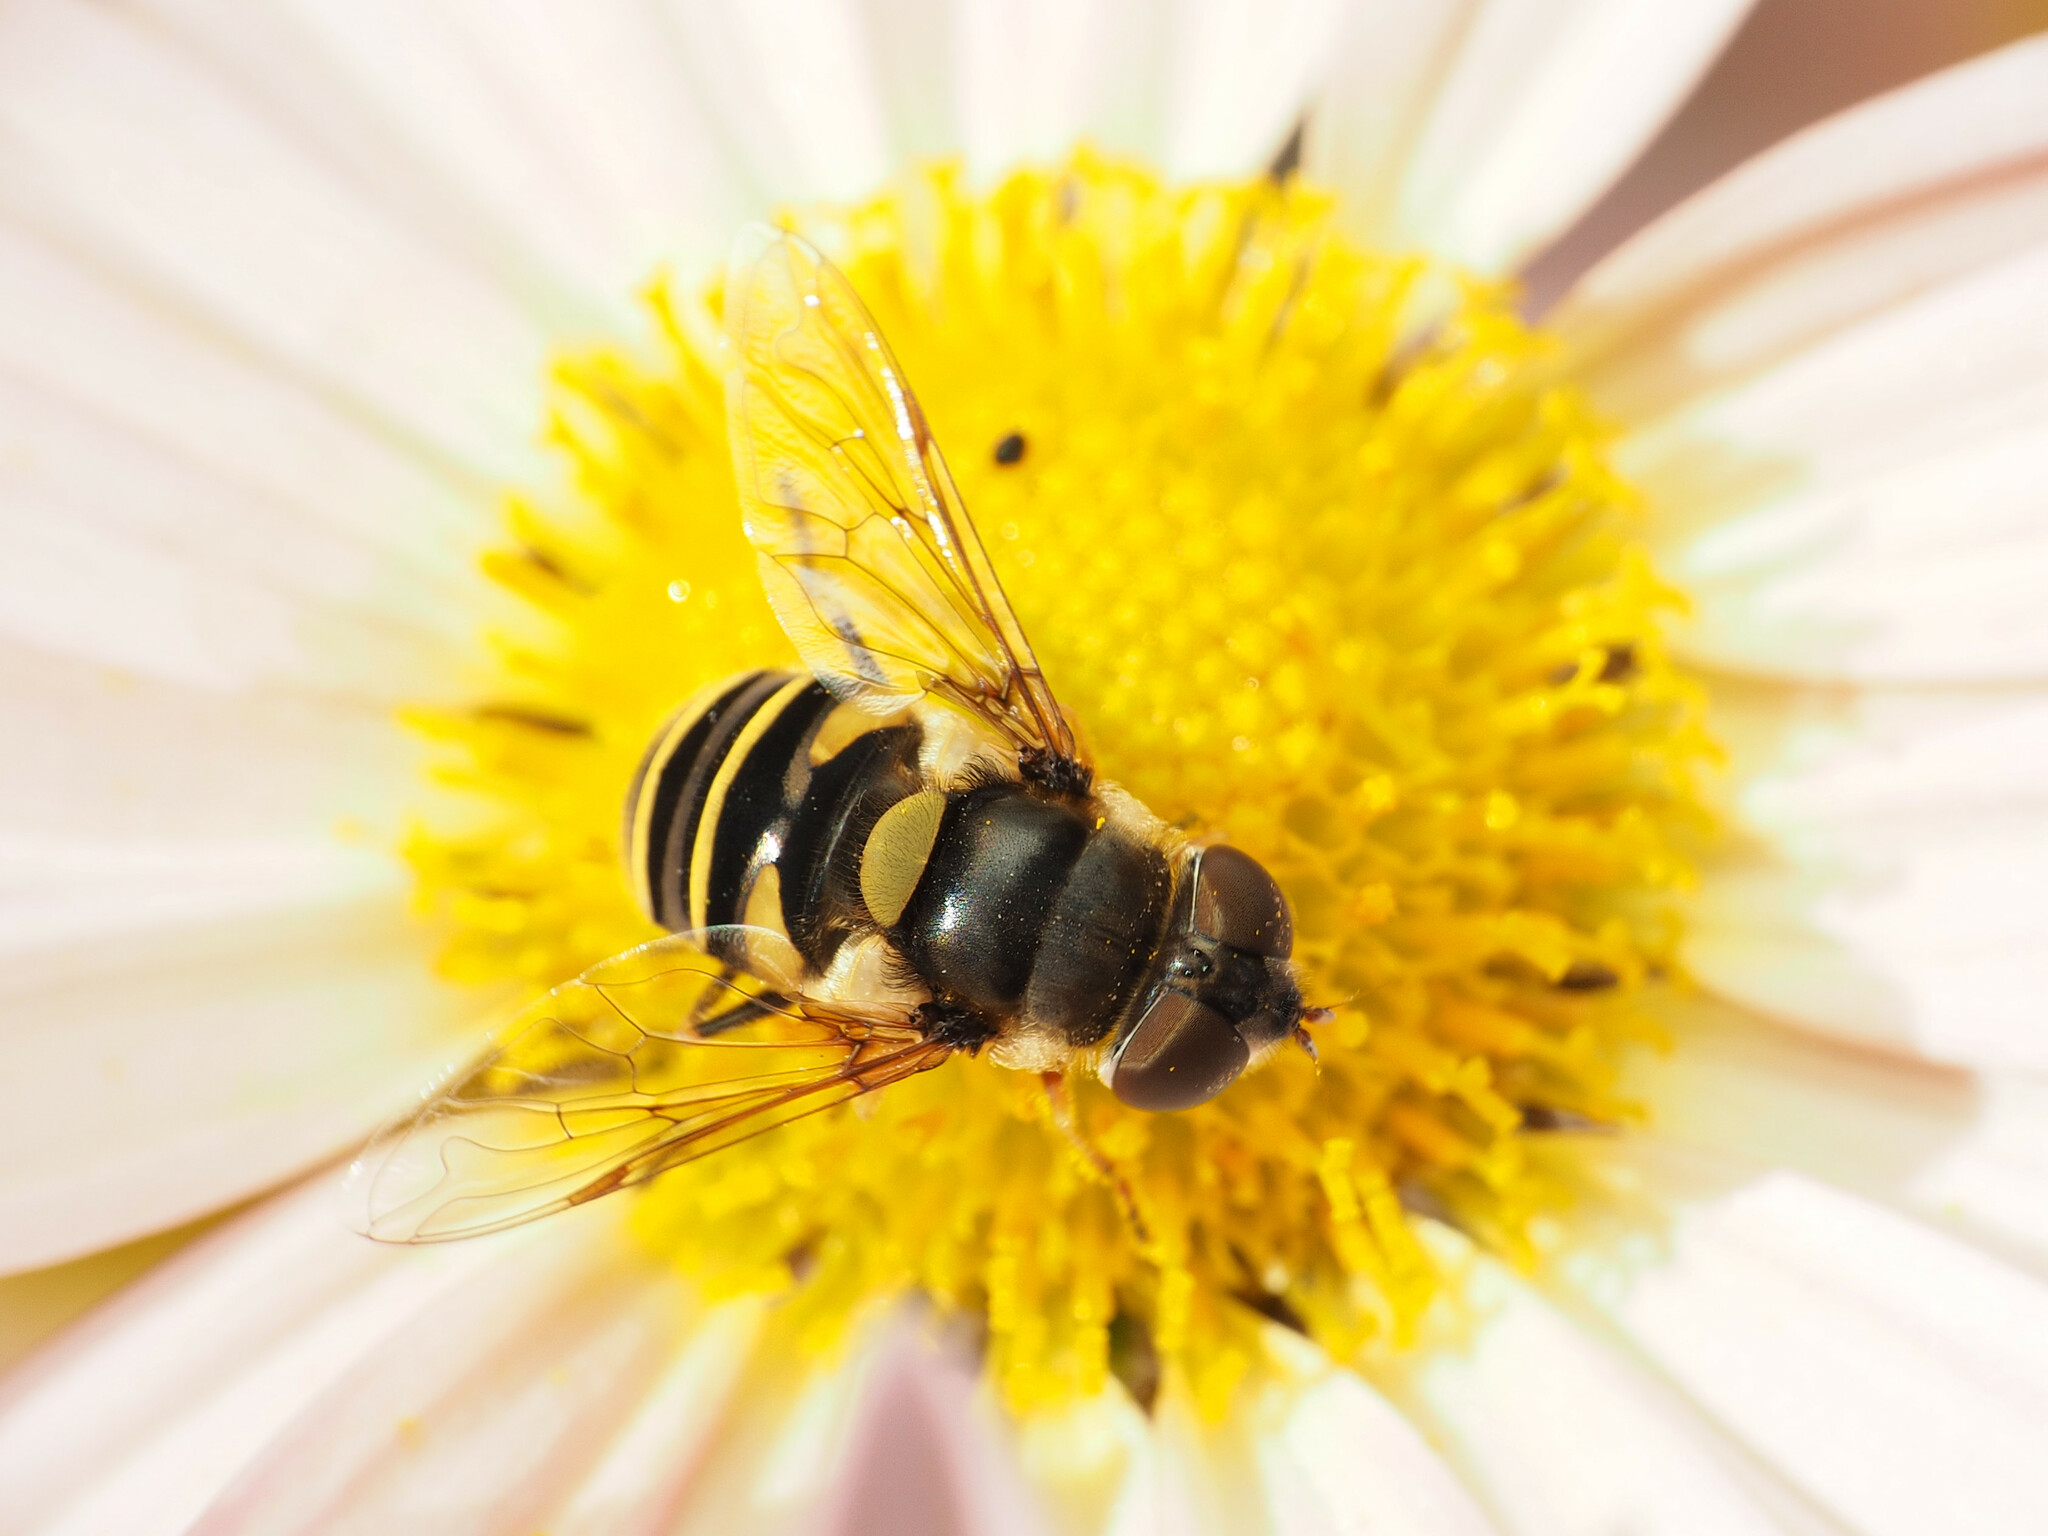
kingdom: Animalia
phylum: Arthropoda
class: Insecta
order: Diptera
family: Syrphidae
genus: Eristalis
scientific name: Eristalis transversa
